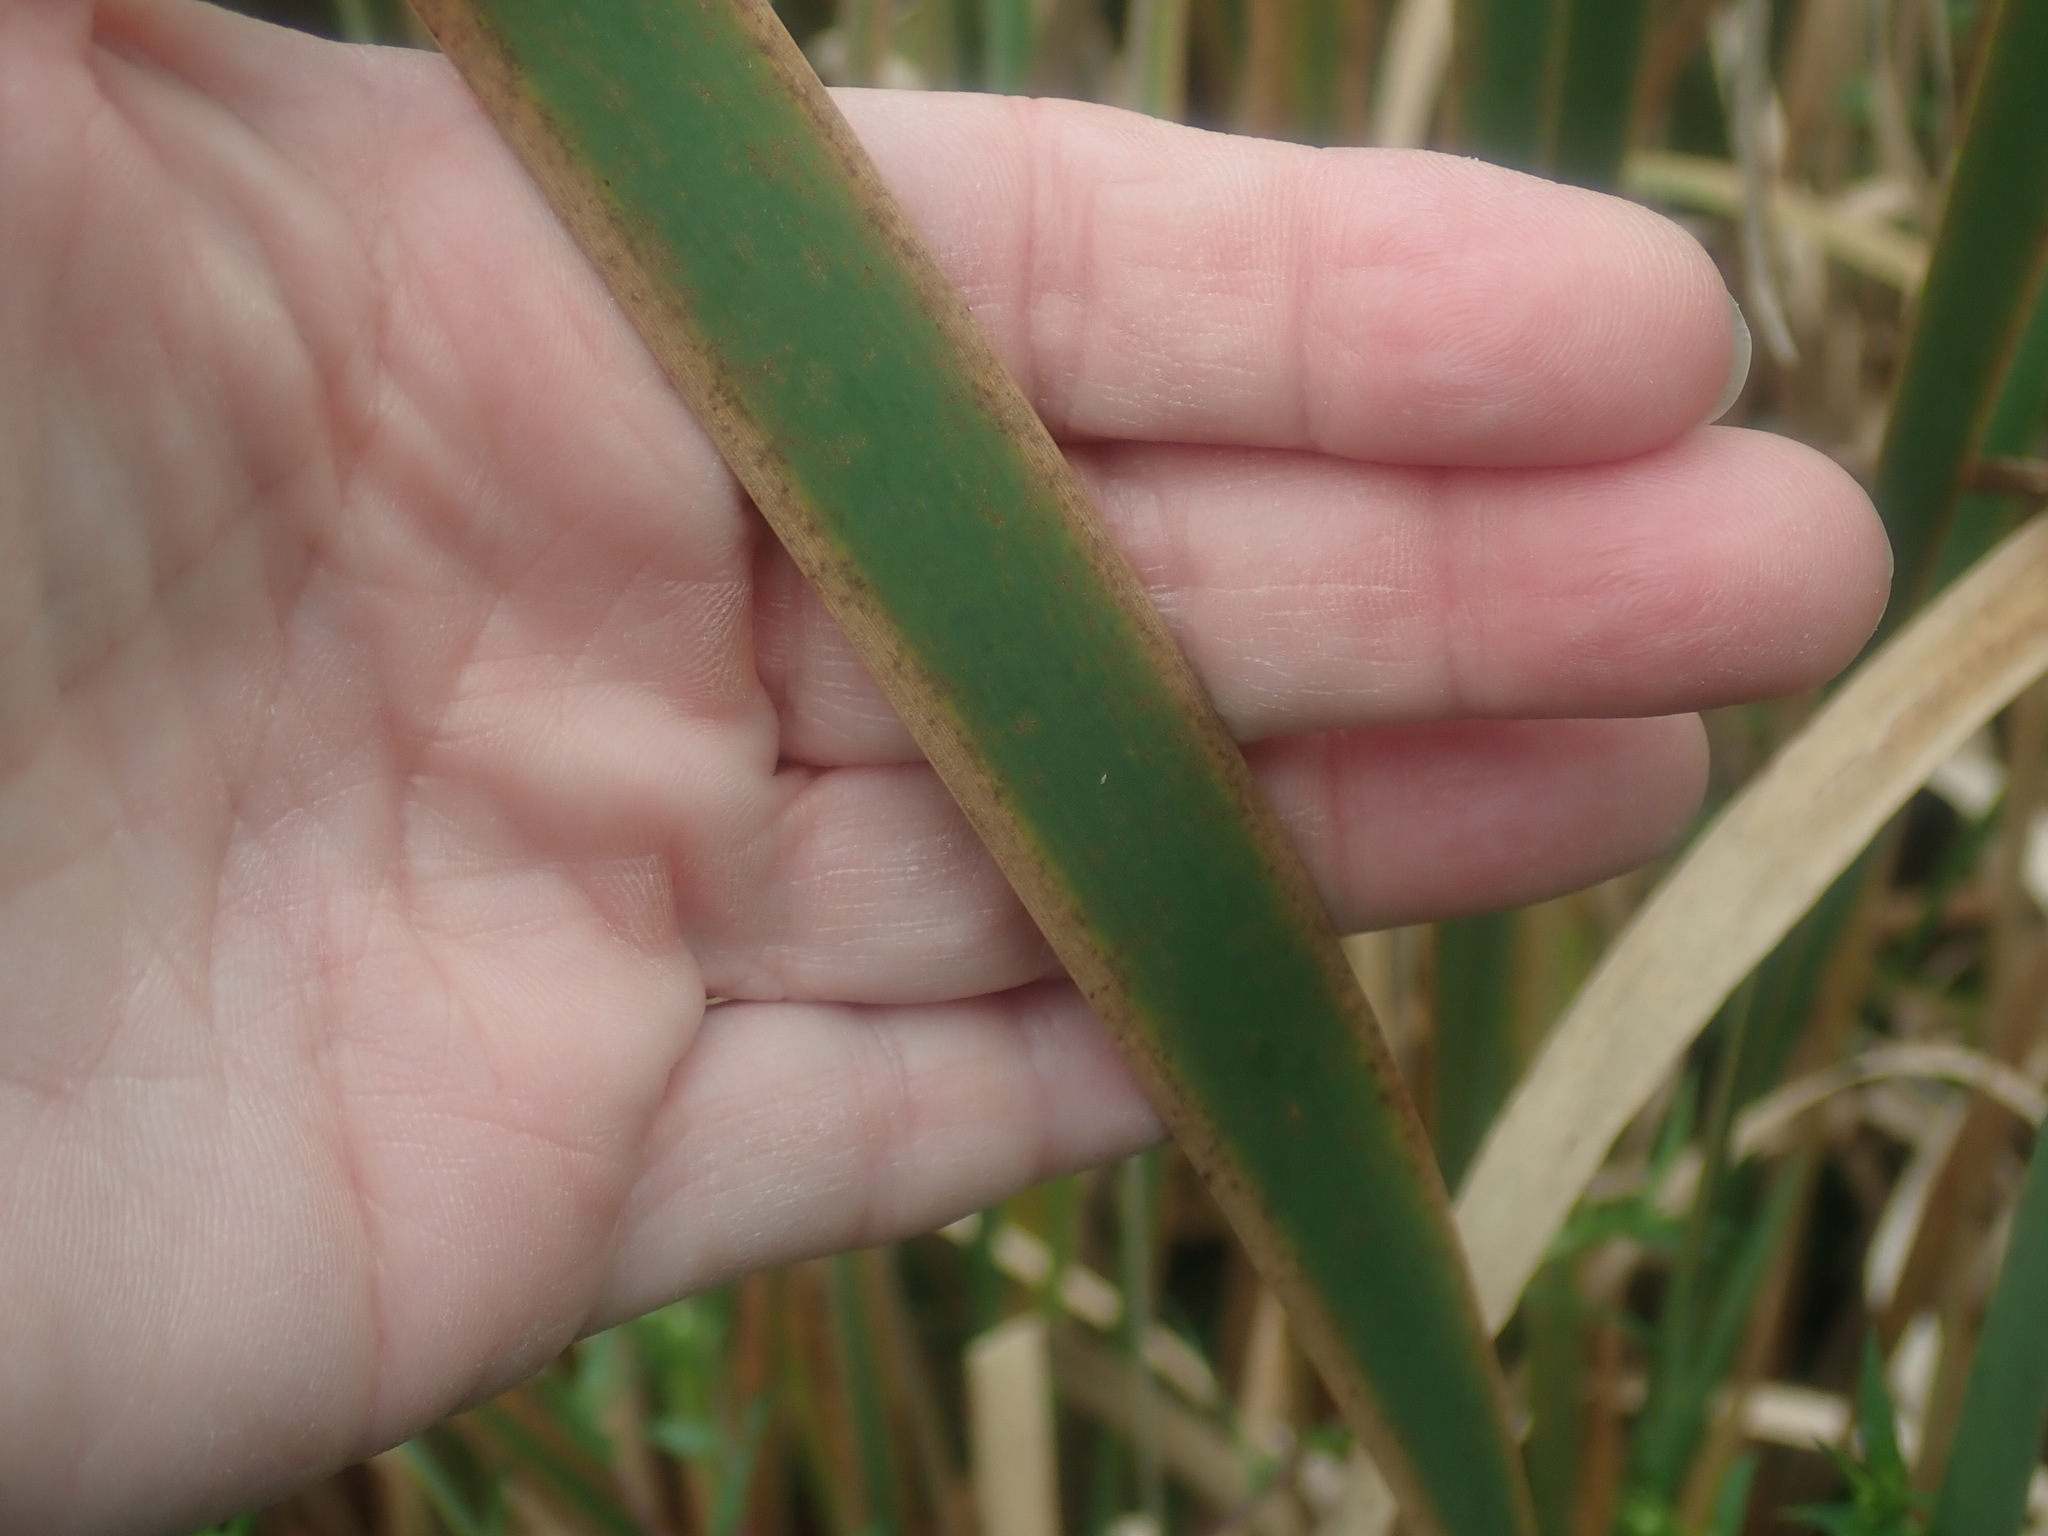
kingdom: Plantae
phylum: Tracheophyta
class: Liliopsida
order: Poales
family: Typhaceae
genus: Typha
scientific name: Typha latifolia
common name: Broadleaf cattail
